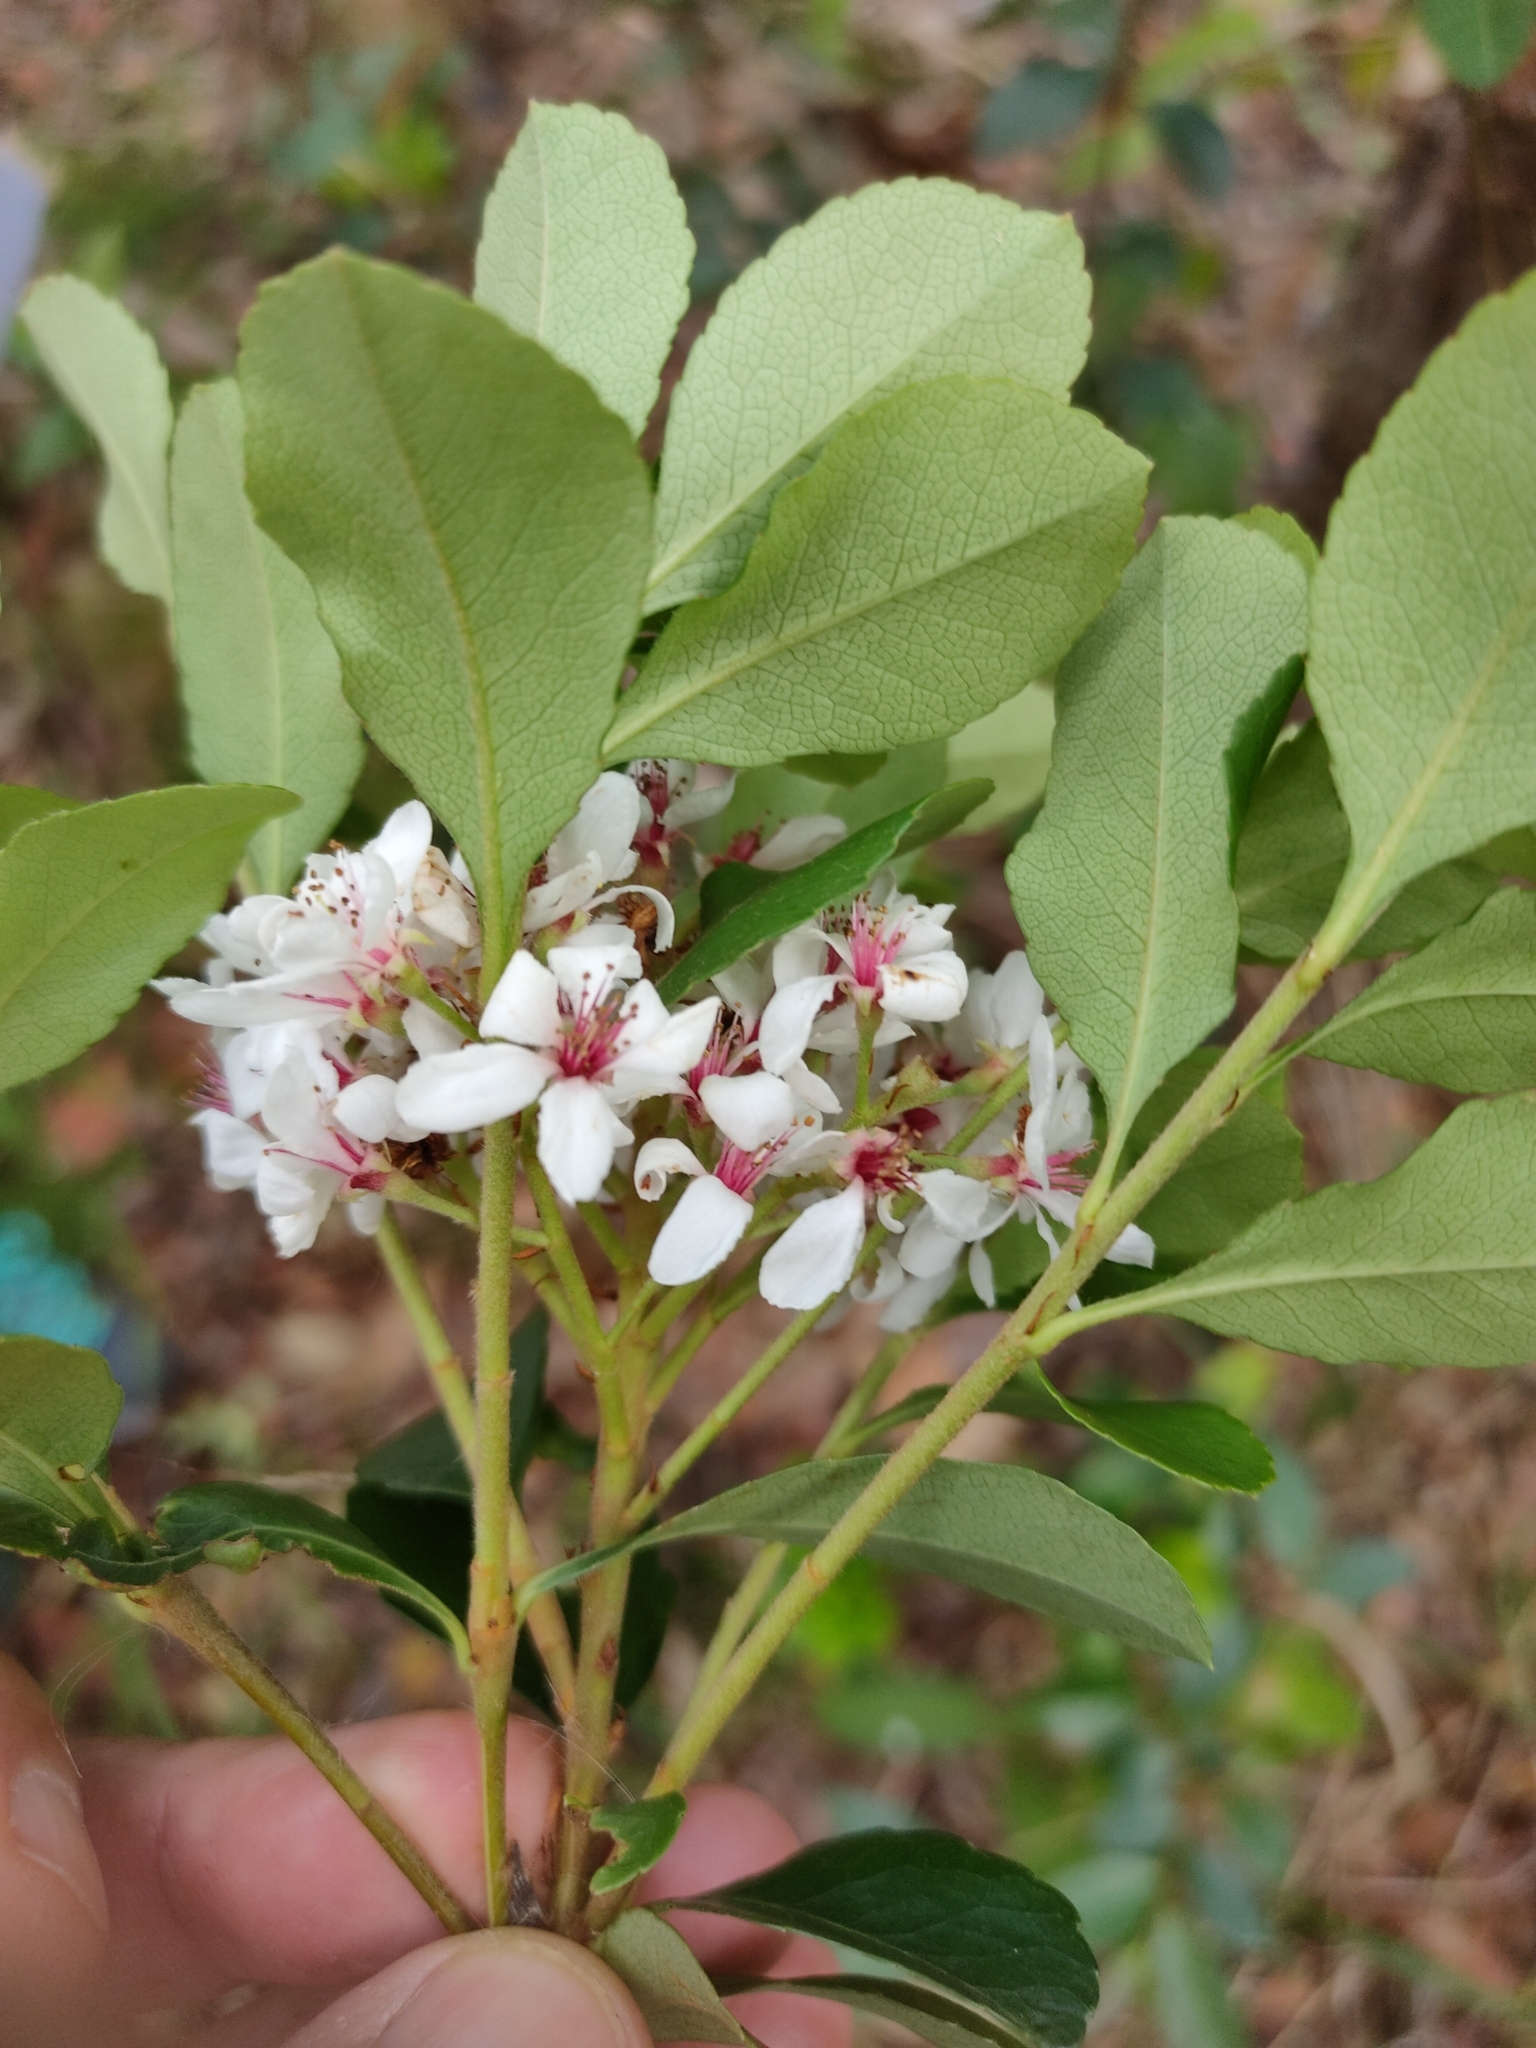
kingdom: Plantae
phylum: Tracheophyta
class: Magnoliopsida
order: Rosales
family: Rosaceae
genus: Rhaphiolepis
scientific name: Rhaphiolepis indica
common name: India-hawthorn
